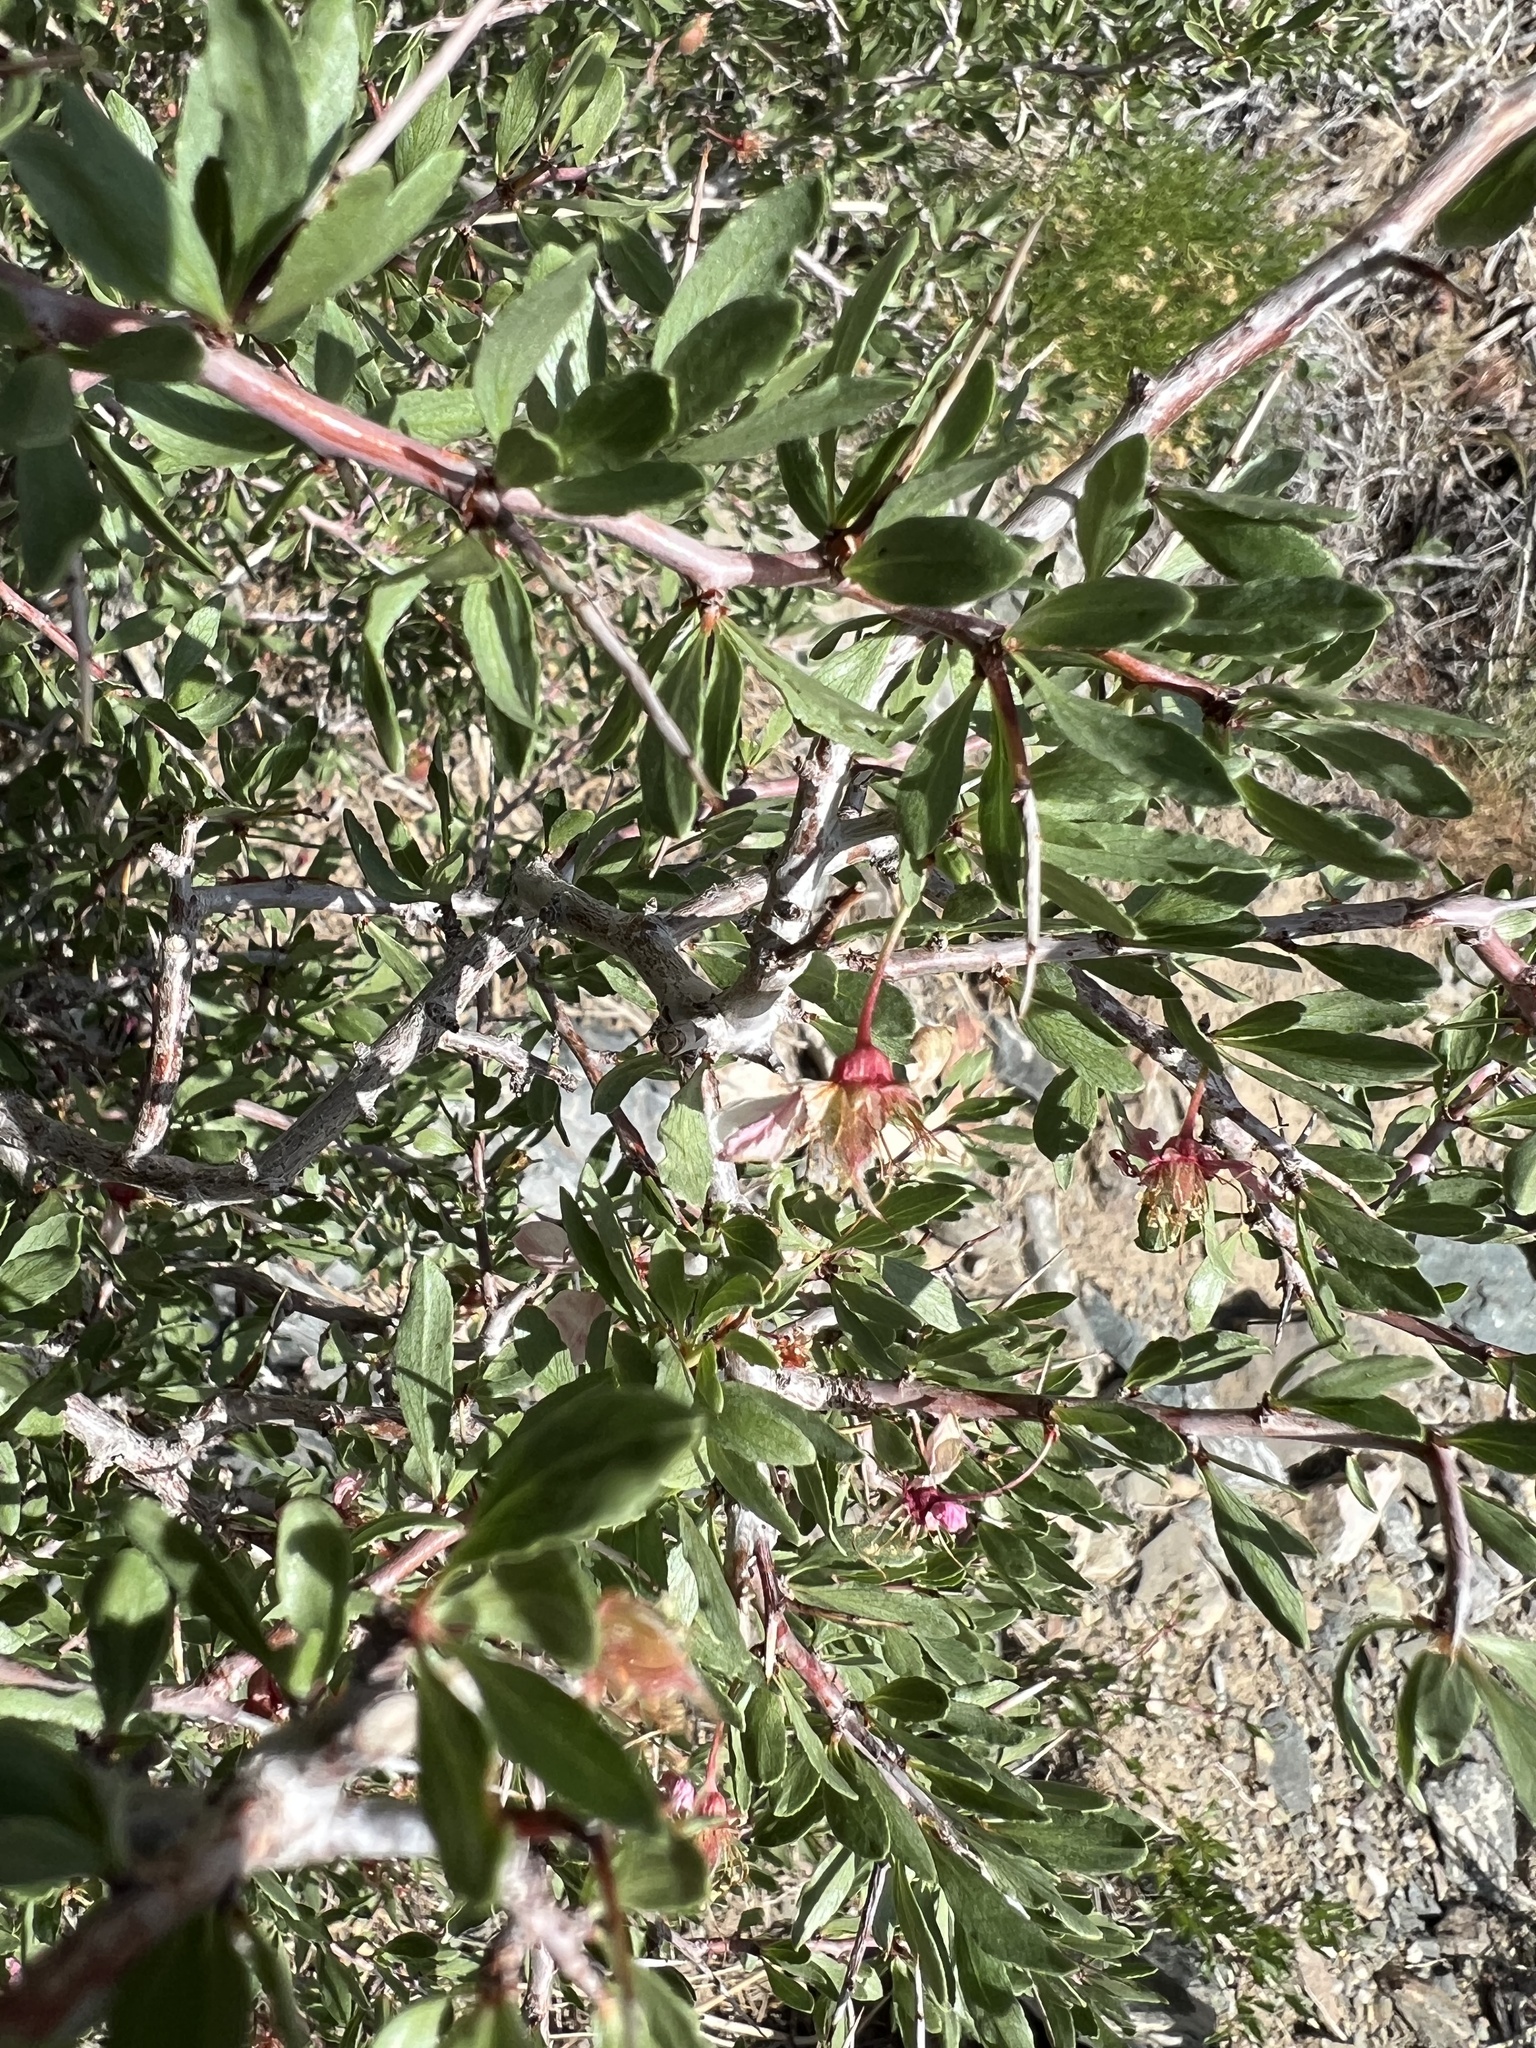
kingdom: Plantae
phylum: Tracheophyta
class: Magnoliopsida
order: Rosales
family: Rosaceae
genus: Prunus
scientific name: Prunus andersonii
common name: Desert peach
